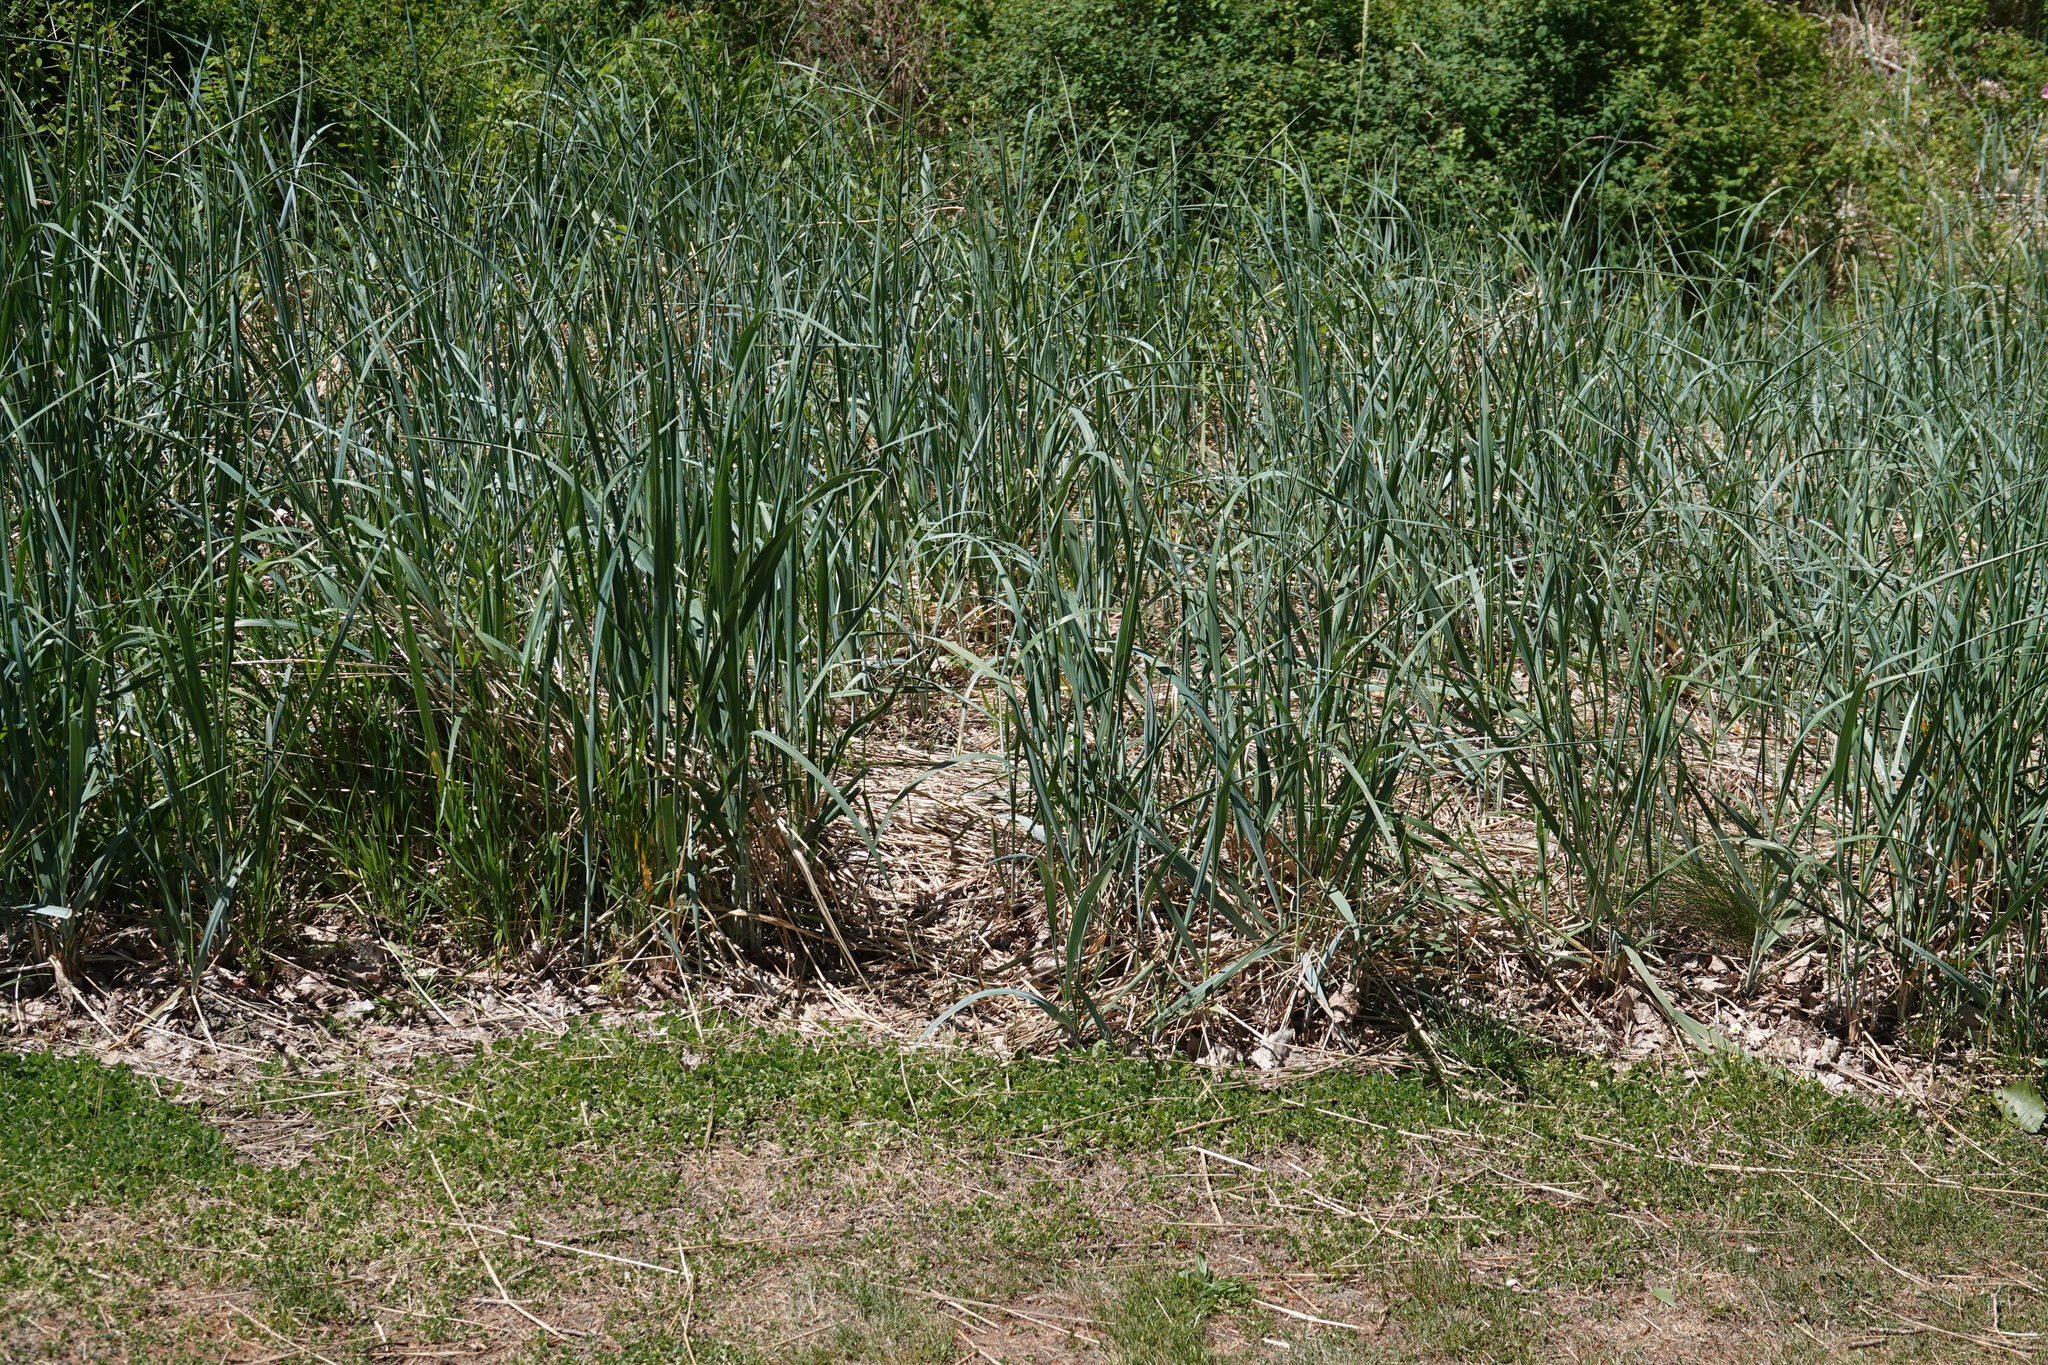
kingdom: Plantae
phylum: Tracheophyta
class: Liliopsida
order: Poales
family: Poaceae
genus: Leymus
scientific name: Leymus mollis
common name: American dune grass
